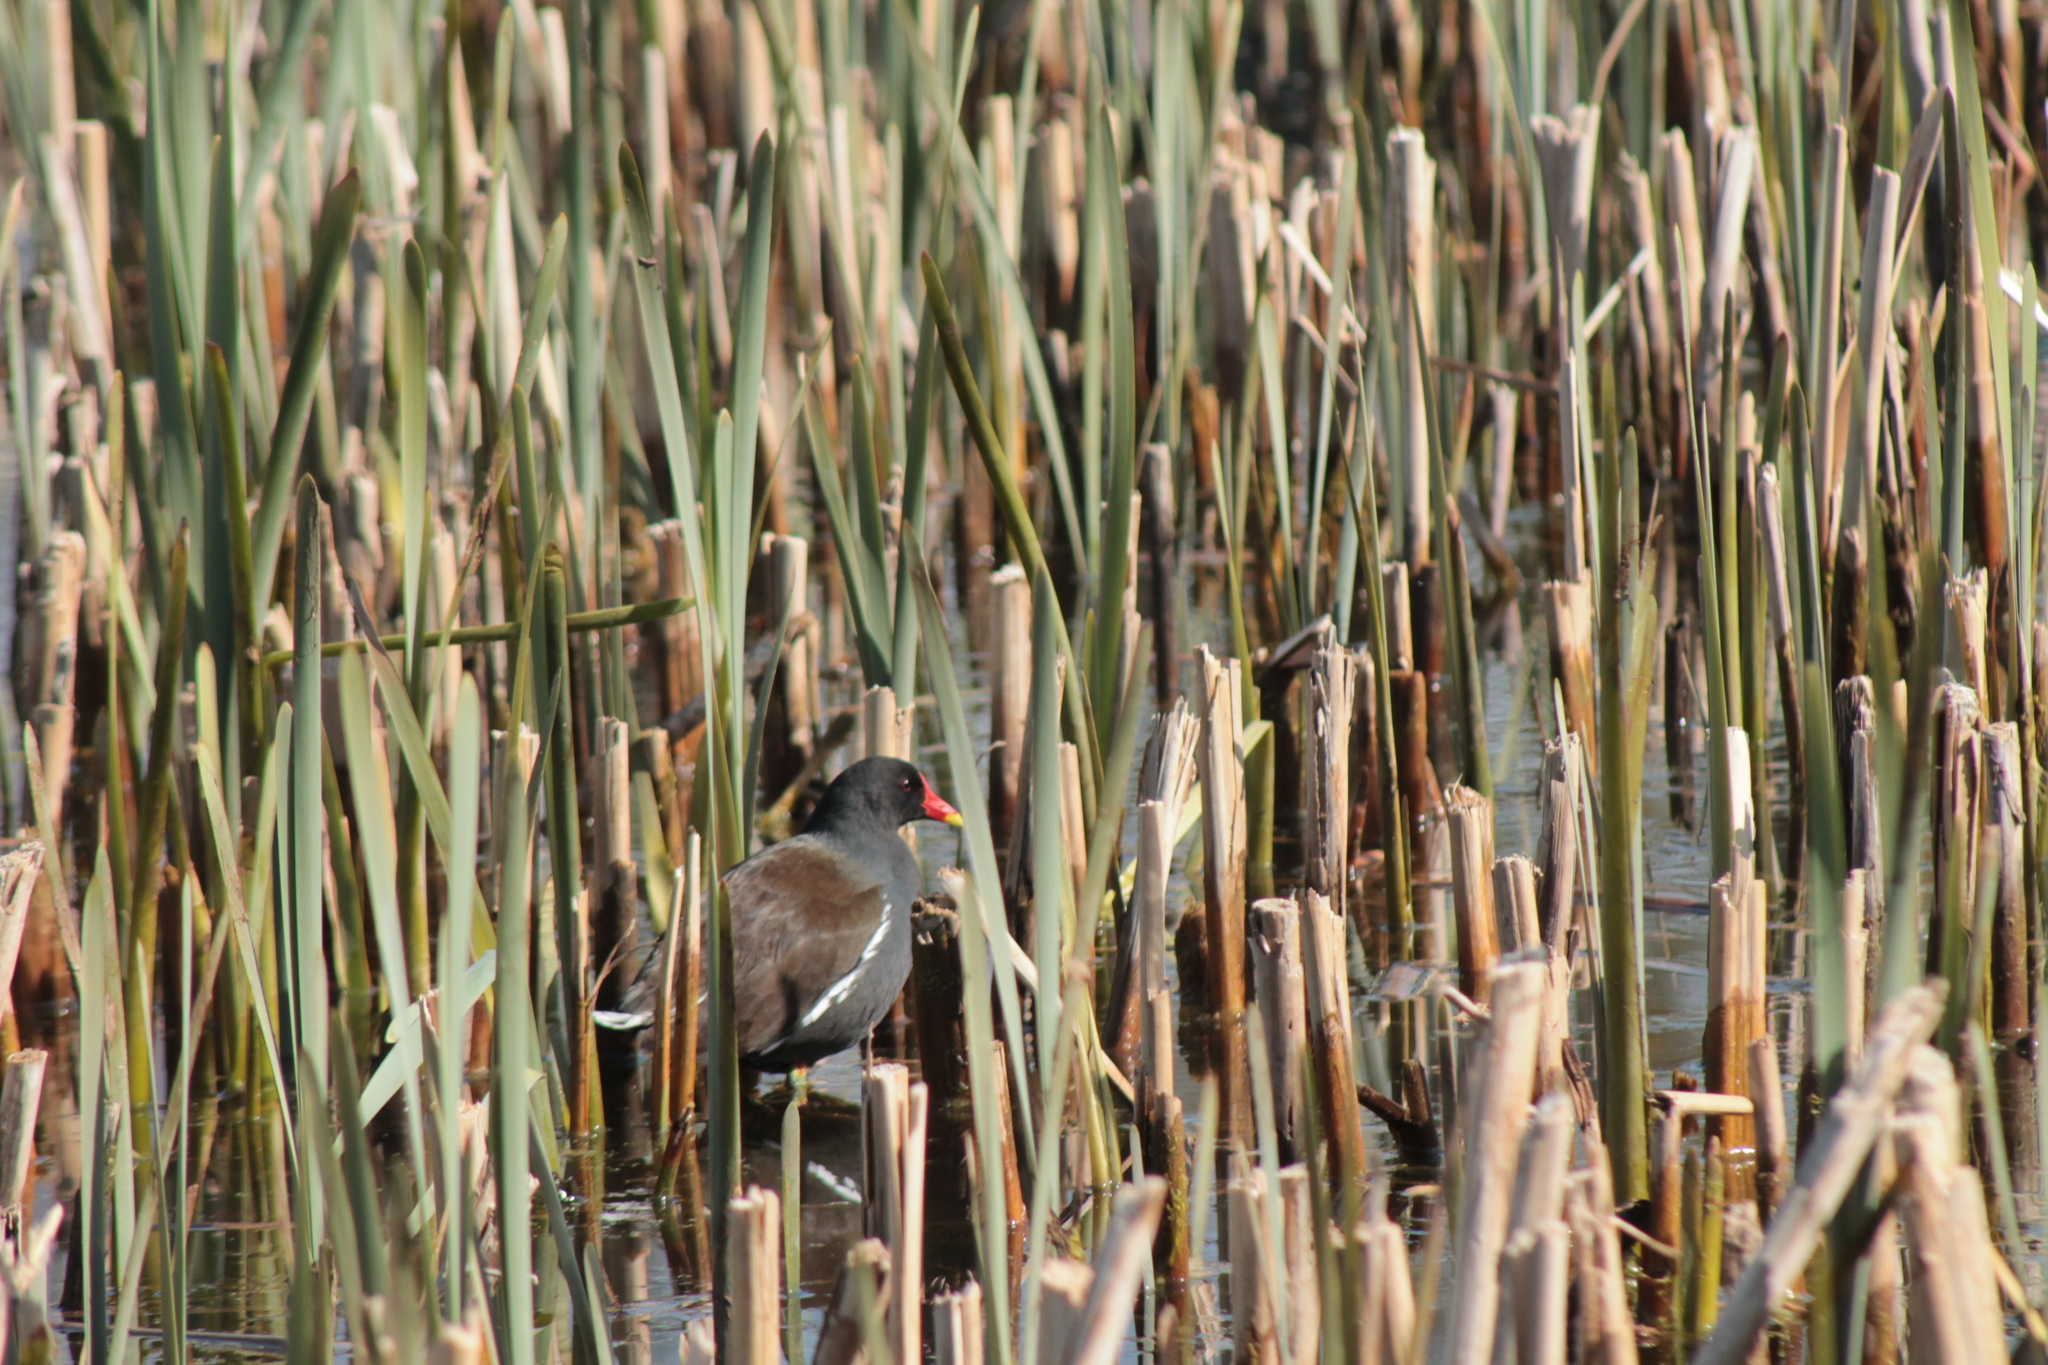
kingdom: Animalia
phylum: Chordata
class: Aves
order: Gruiformes
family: Rallidae
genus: Gallinula
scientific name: Gallinula chloropus
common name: Common moorhen
